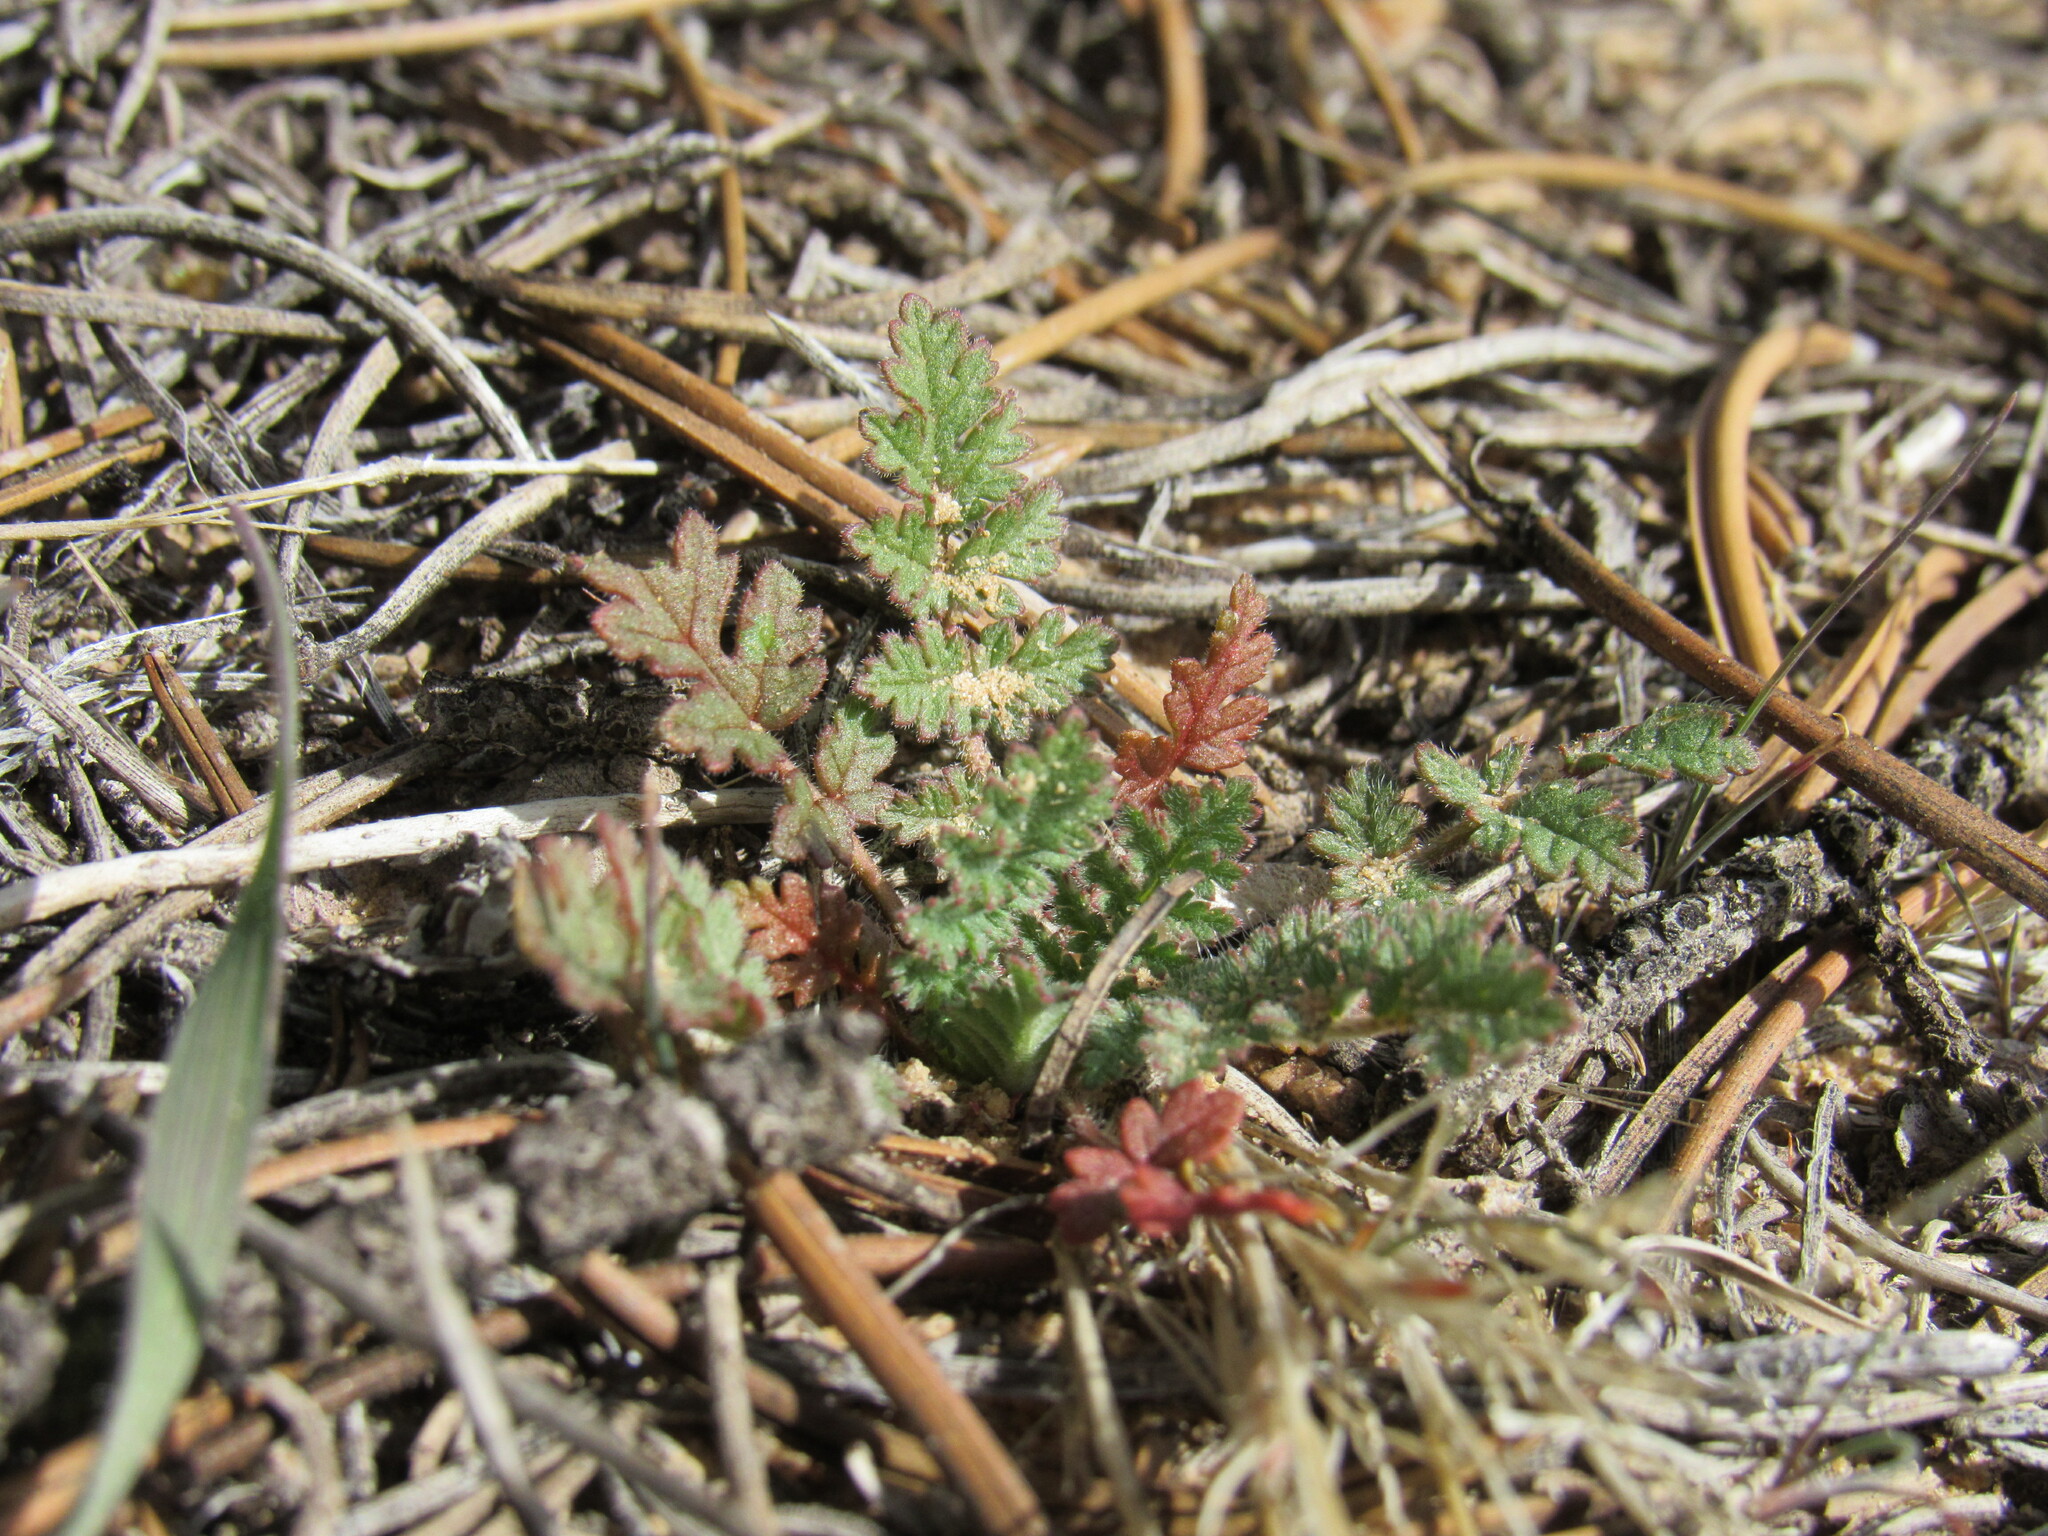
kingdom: Plantae
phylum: Tracheophyta
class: Magnoliopsida
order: Geraniales
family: Geraniaceae
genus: Erodium
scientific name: Erodium cicutarium
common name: Common stork's-bill
